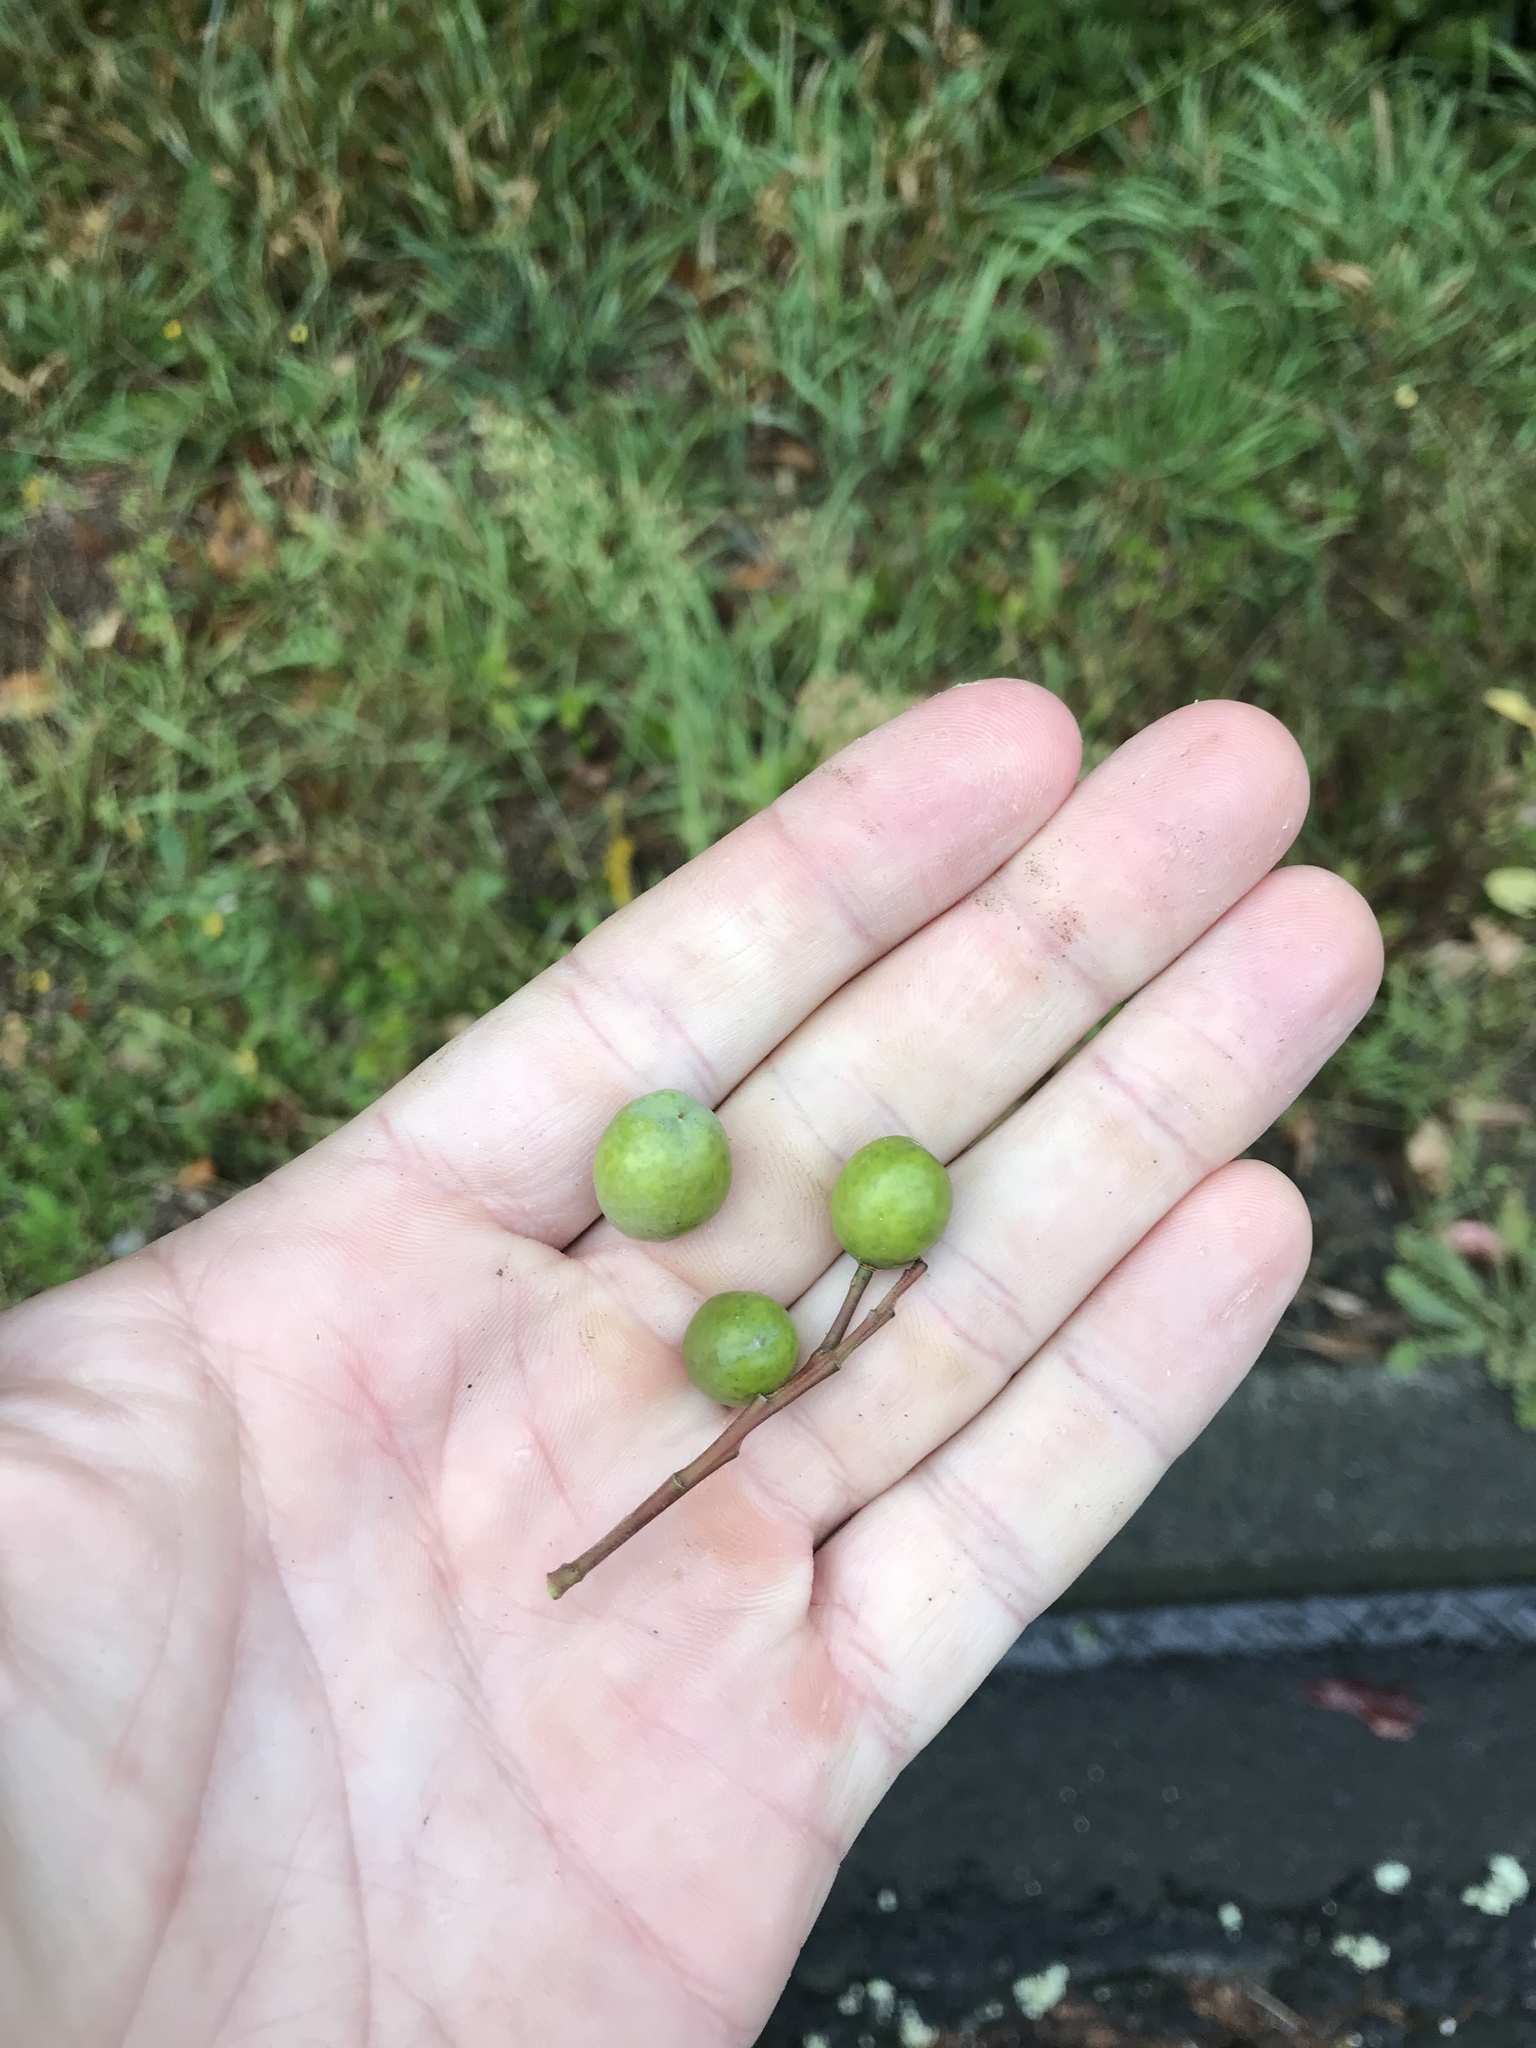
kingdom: Plantae
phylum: Tracheophyta
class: Magnoliopsida
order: Oxalidales
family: Elaeocarpaceae
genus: Elaeocarpus
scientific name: Elaeocarpus dentatus
